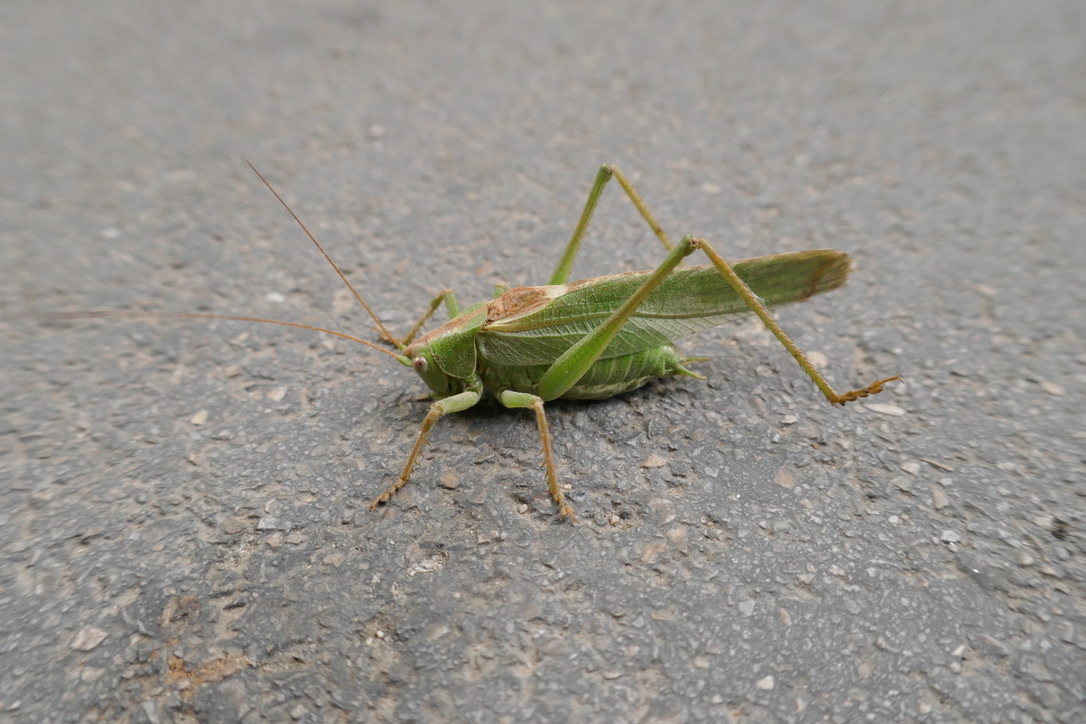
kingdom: Animalia
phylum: Arthropoda
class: Insecta
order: Orthoptera
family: Tettigoniidae
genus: Tettigonia
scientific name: Tettigonia viridissima
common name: Great green bush-cricket
